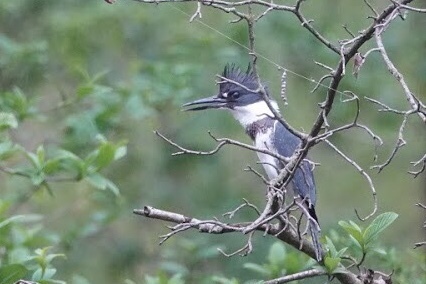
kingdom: Animalia
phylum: Chordata
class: Aves
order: Coraciiformes
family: Alcedinidae
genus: Megaceryle
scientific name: Megaceryle alcyon
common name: Belted kingfisher
